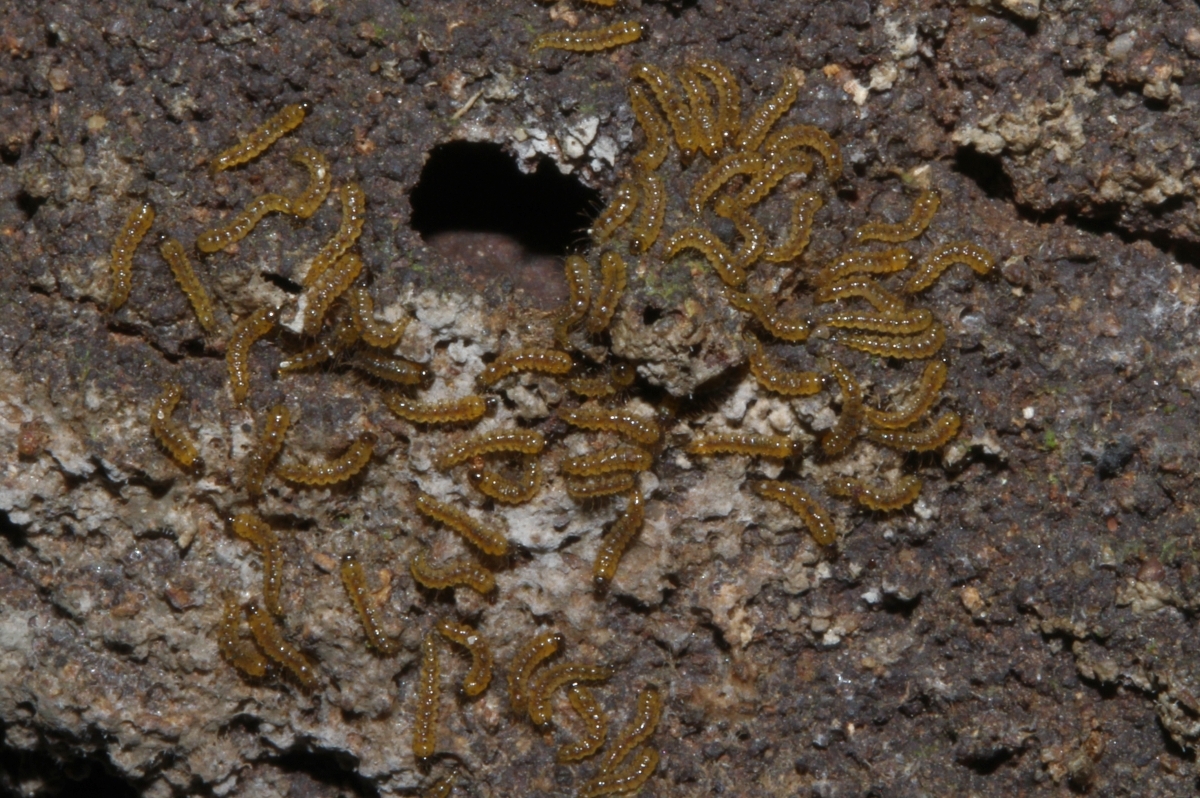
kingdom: Animalia
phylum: Arthropoda
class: Insecta
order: Diptera
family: Ceratopogonidae
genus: Forcipomyia
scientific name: Forcipomyia
